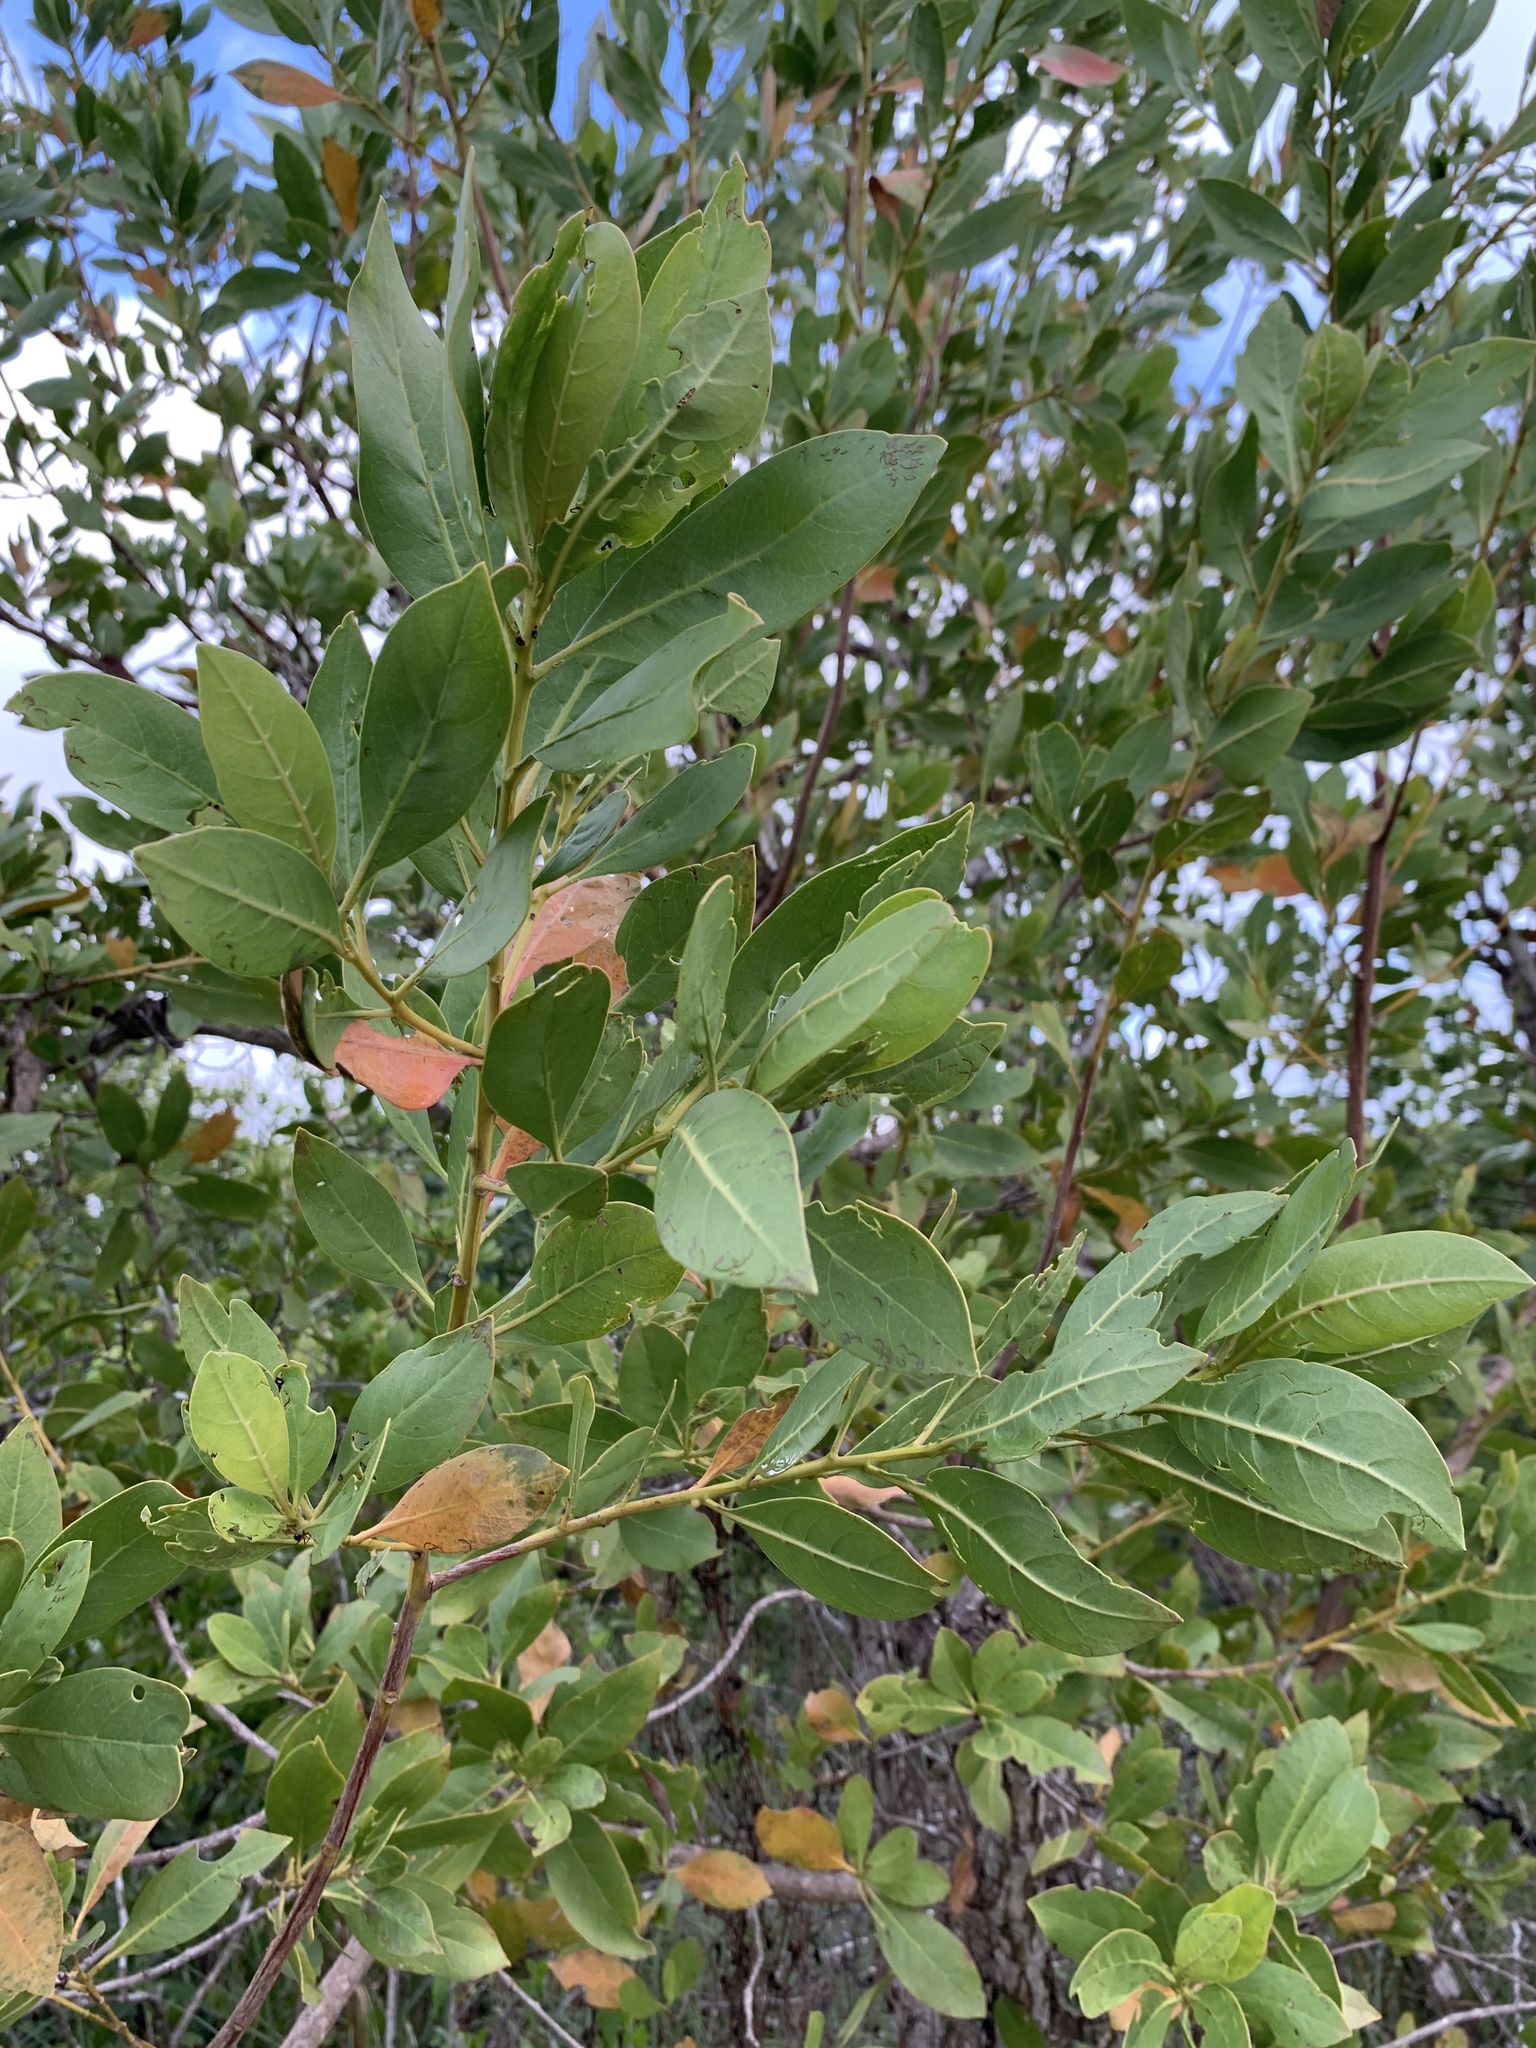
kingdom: Plantae
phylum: Tracheophyta
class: Magnoliopsida
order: Myrtales
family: Combretaceae
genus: Conocarpus
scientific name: Conocarpus erectus
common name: Button mangrove
